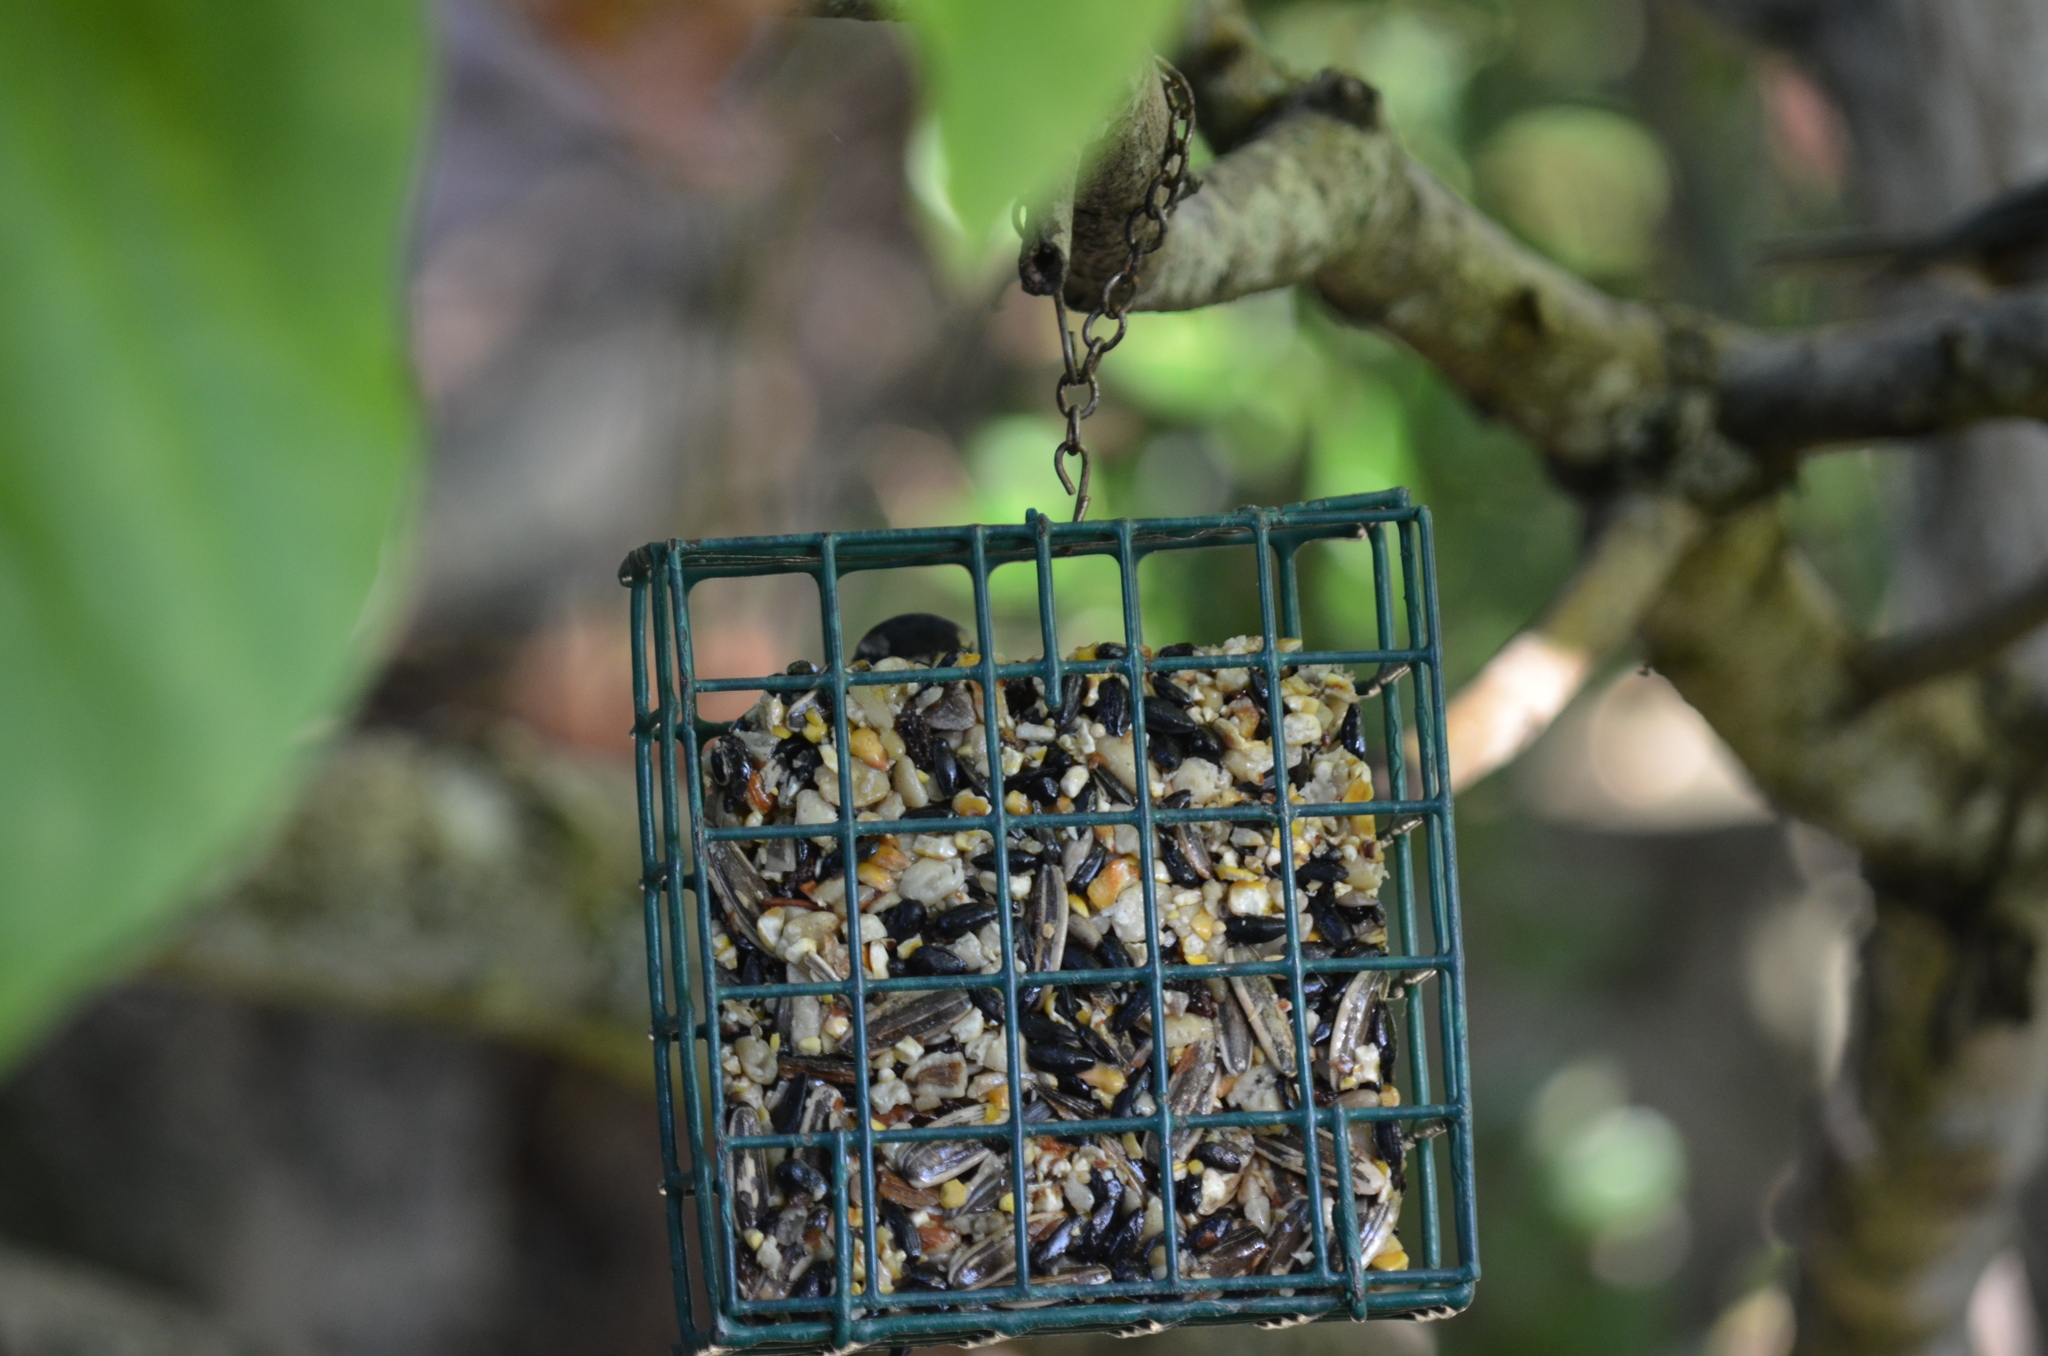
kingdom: Animalia
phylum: Chordata
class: Aves
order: Piciformes
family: Picidae
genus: Dryobates
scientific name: Dryobates pubescens
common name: Downy woodpecker
